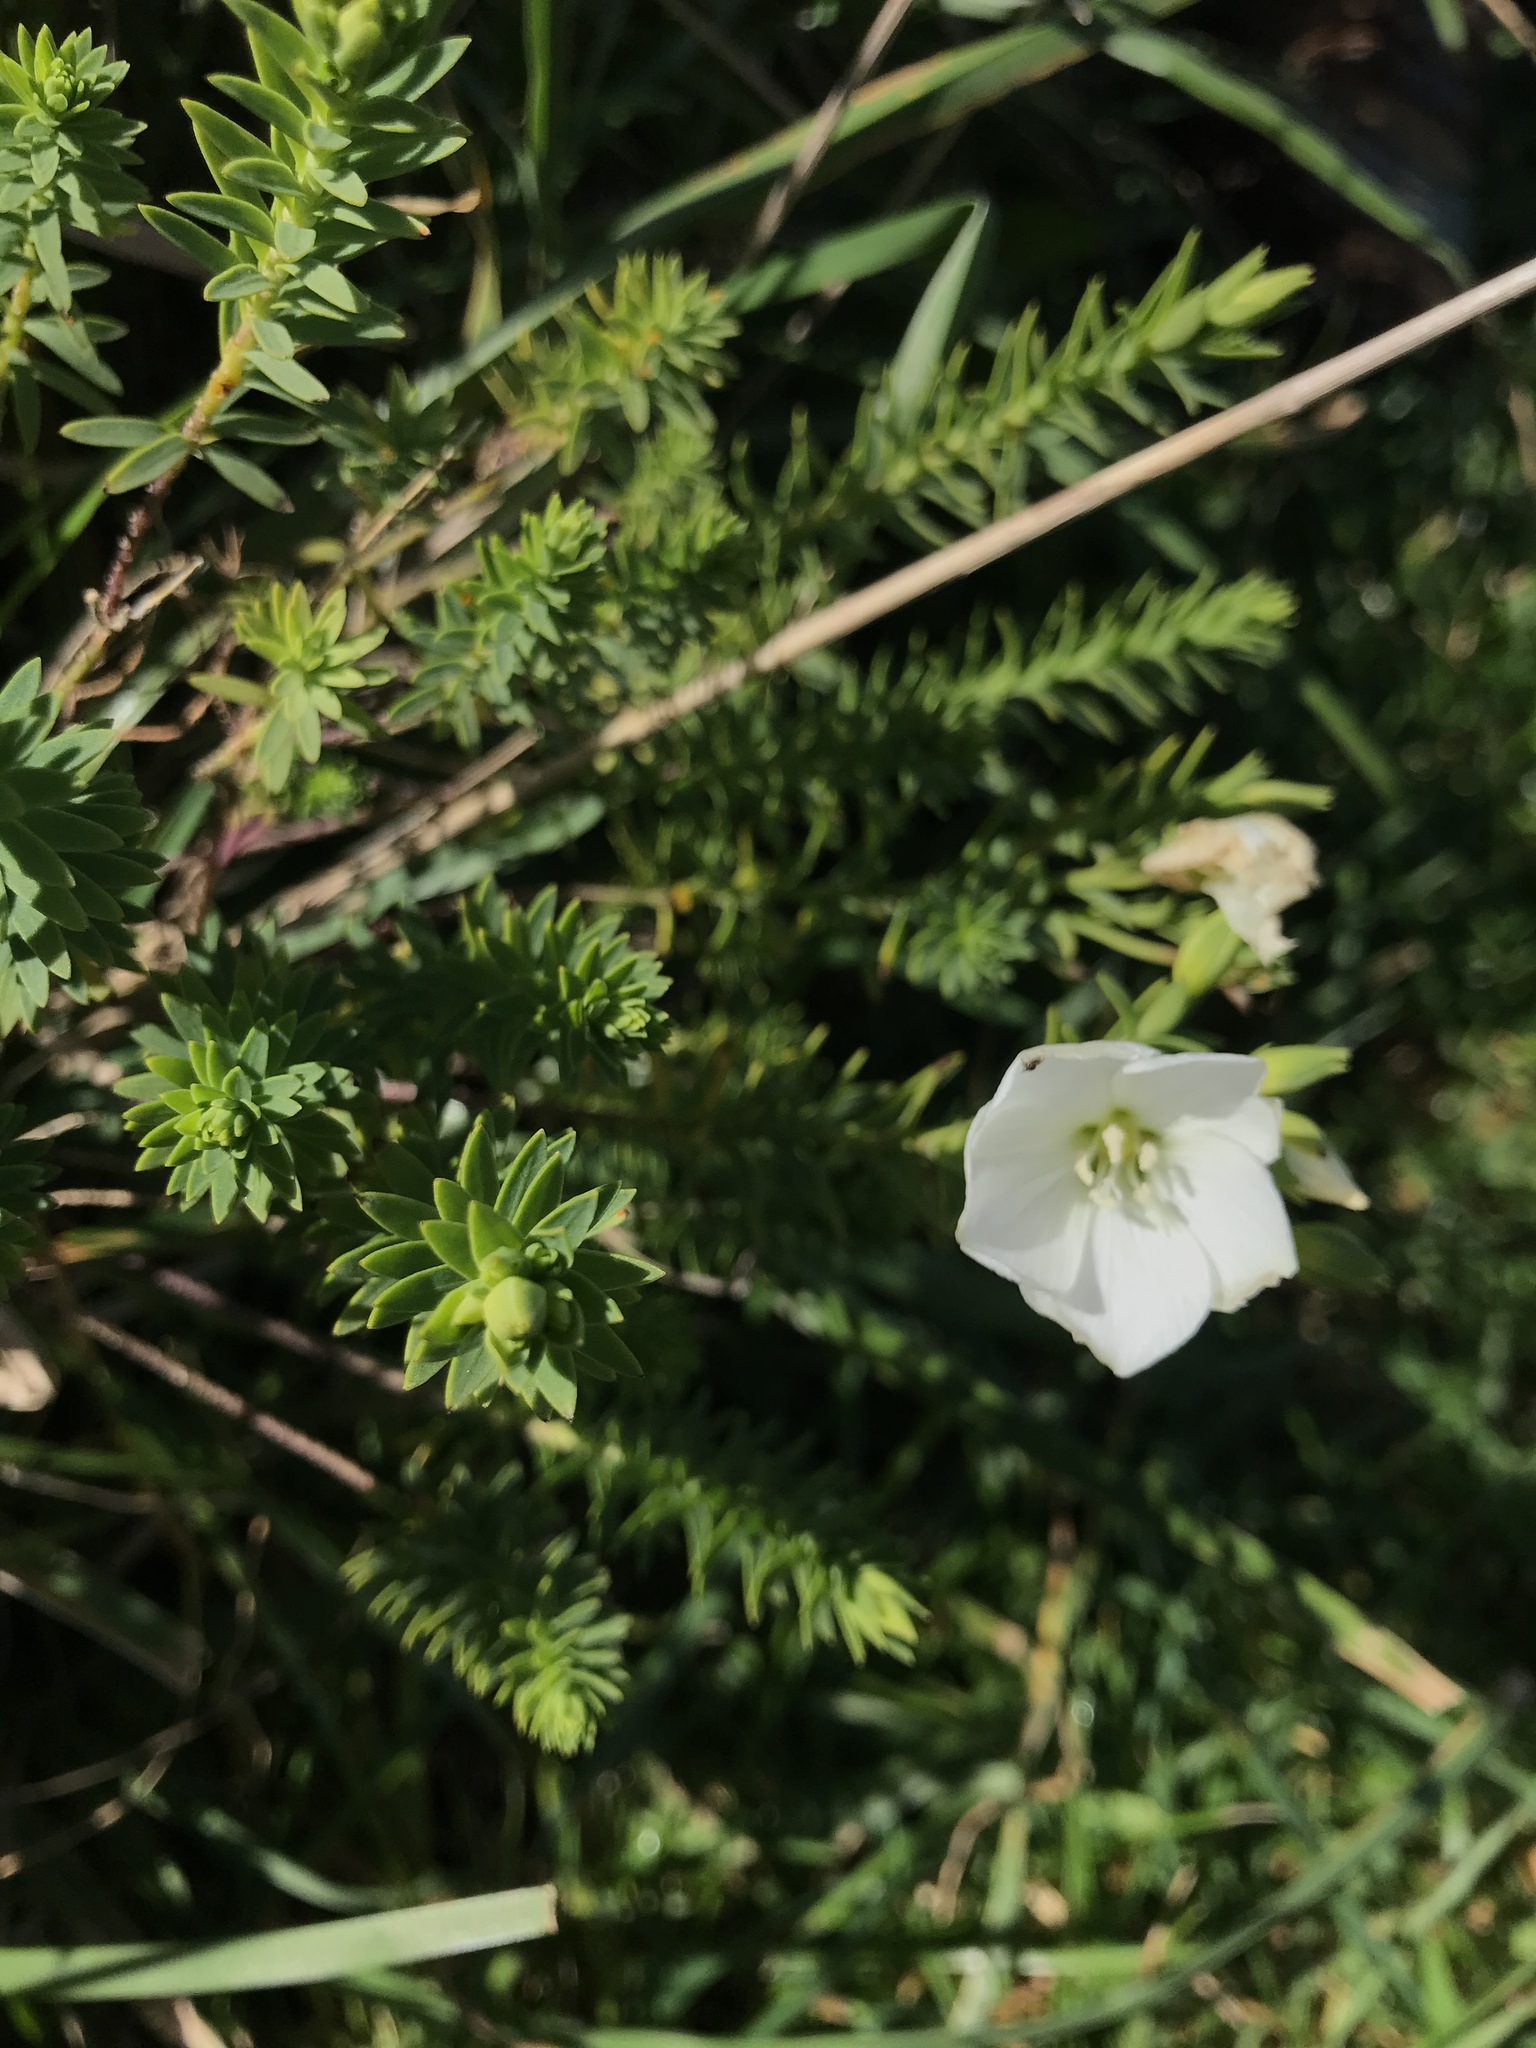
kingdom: Plantae
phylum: Tracheophyta
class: Magnoliopsida
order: Malpighiales
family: Linaceae
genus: Linum
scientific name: Linum monogynum
